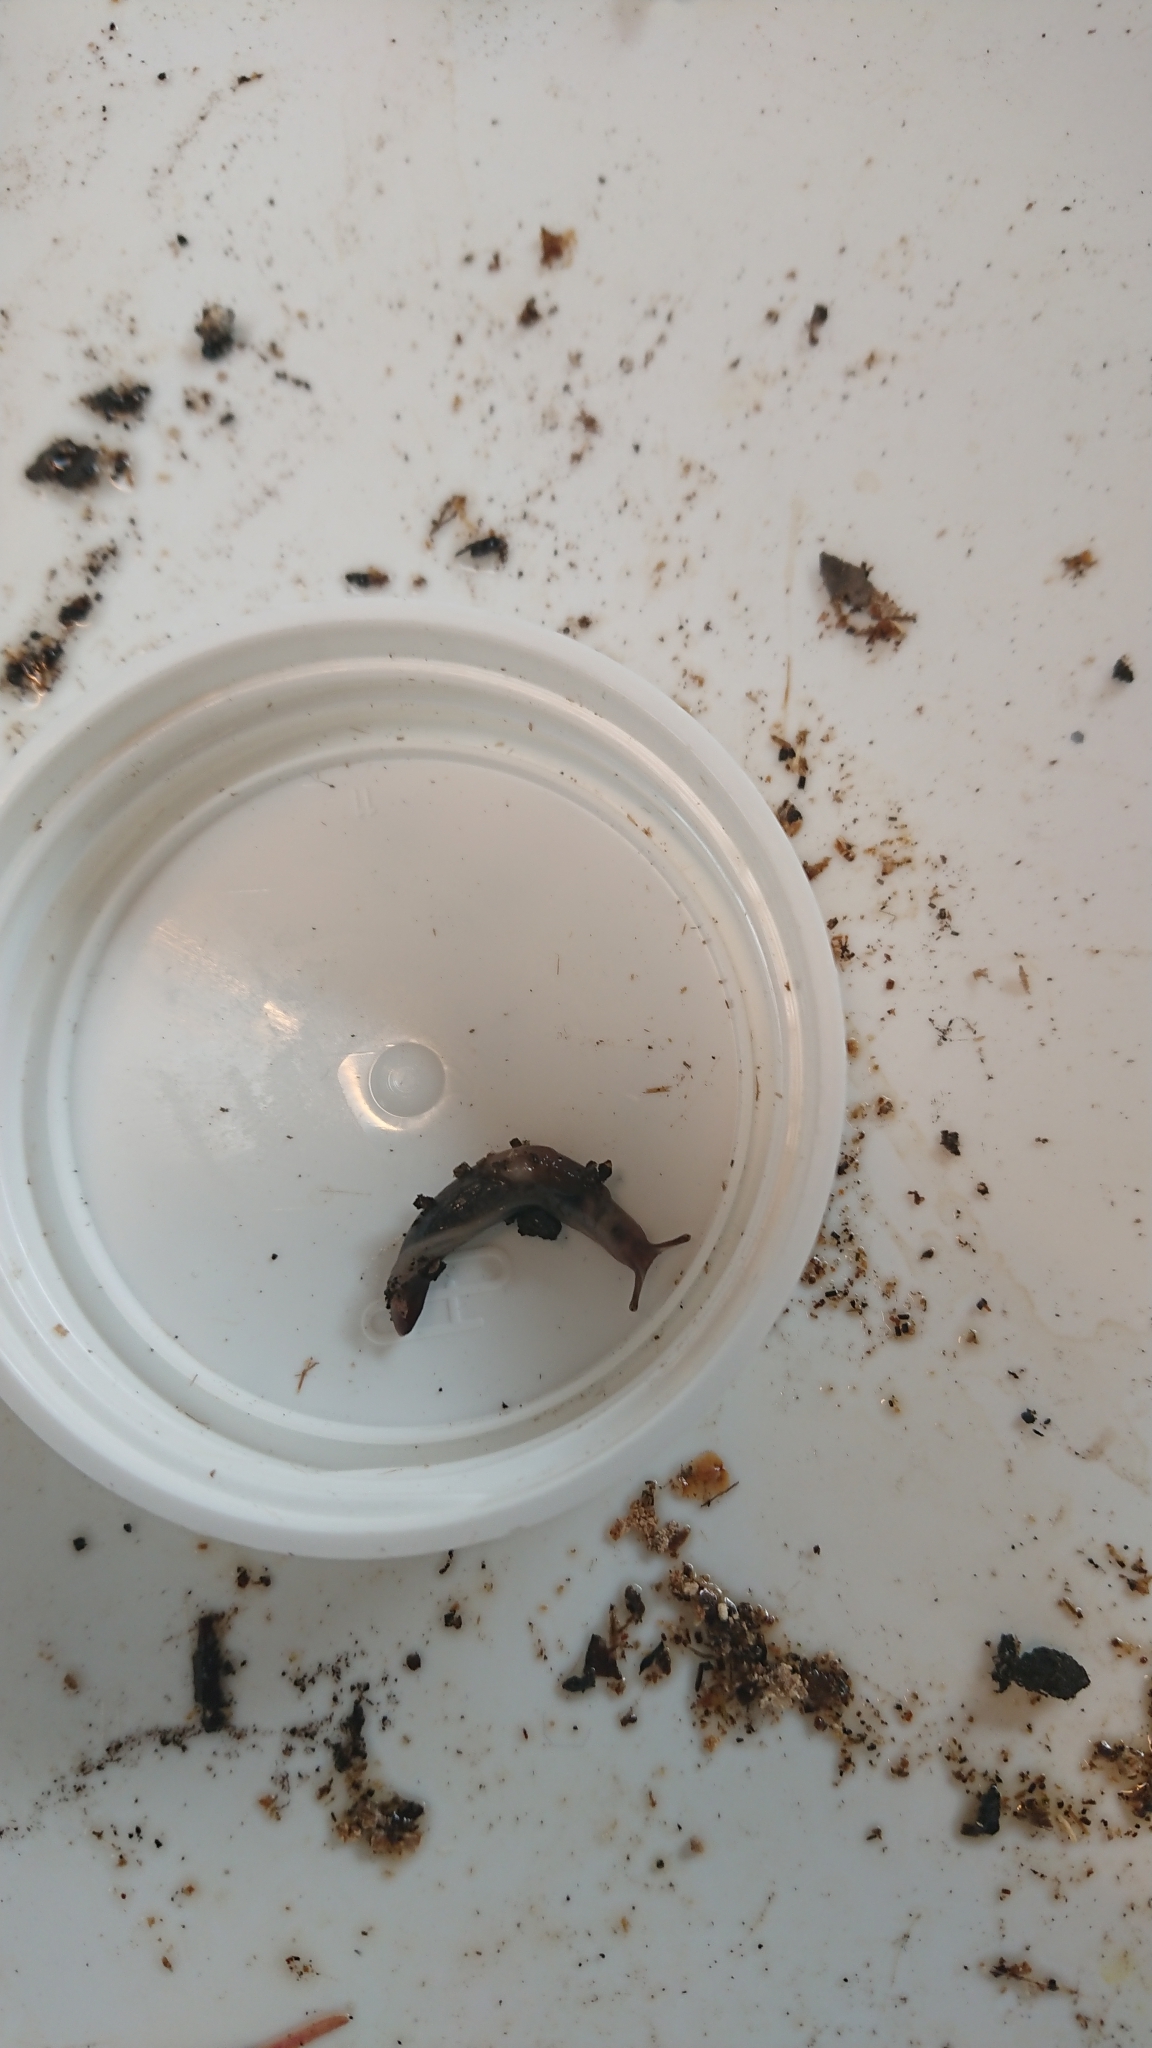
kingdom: Animalia
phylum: Mollusca
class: Gastropoda
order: Stylommatophora
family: Agriolimacidae
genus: Deroceras
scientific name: Deroceras invadens
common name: Caruana's slug
